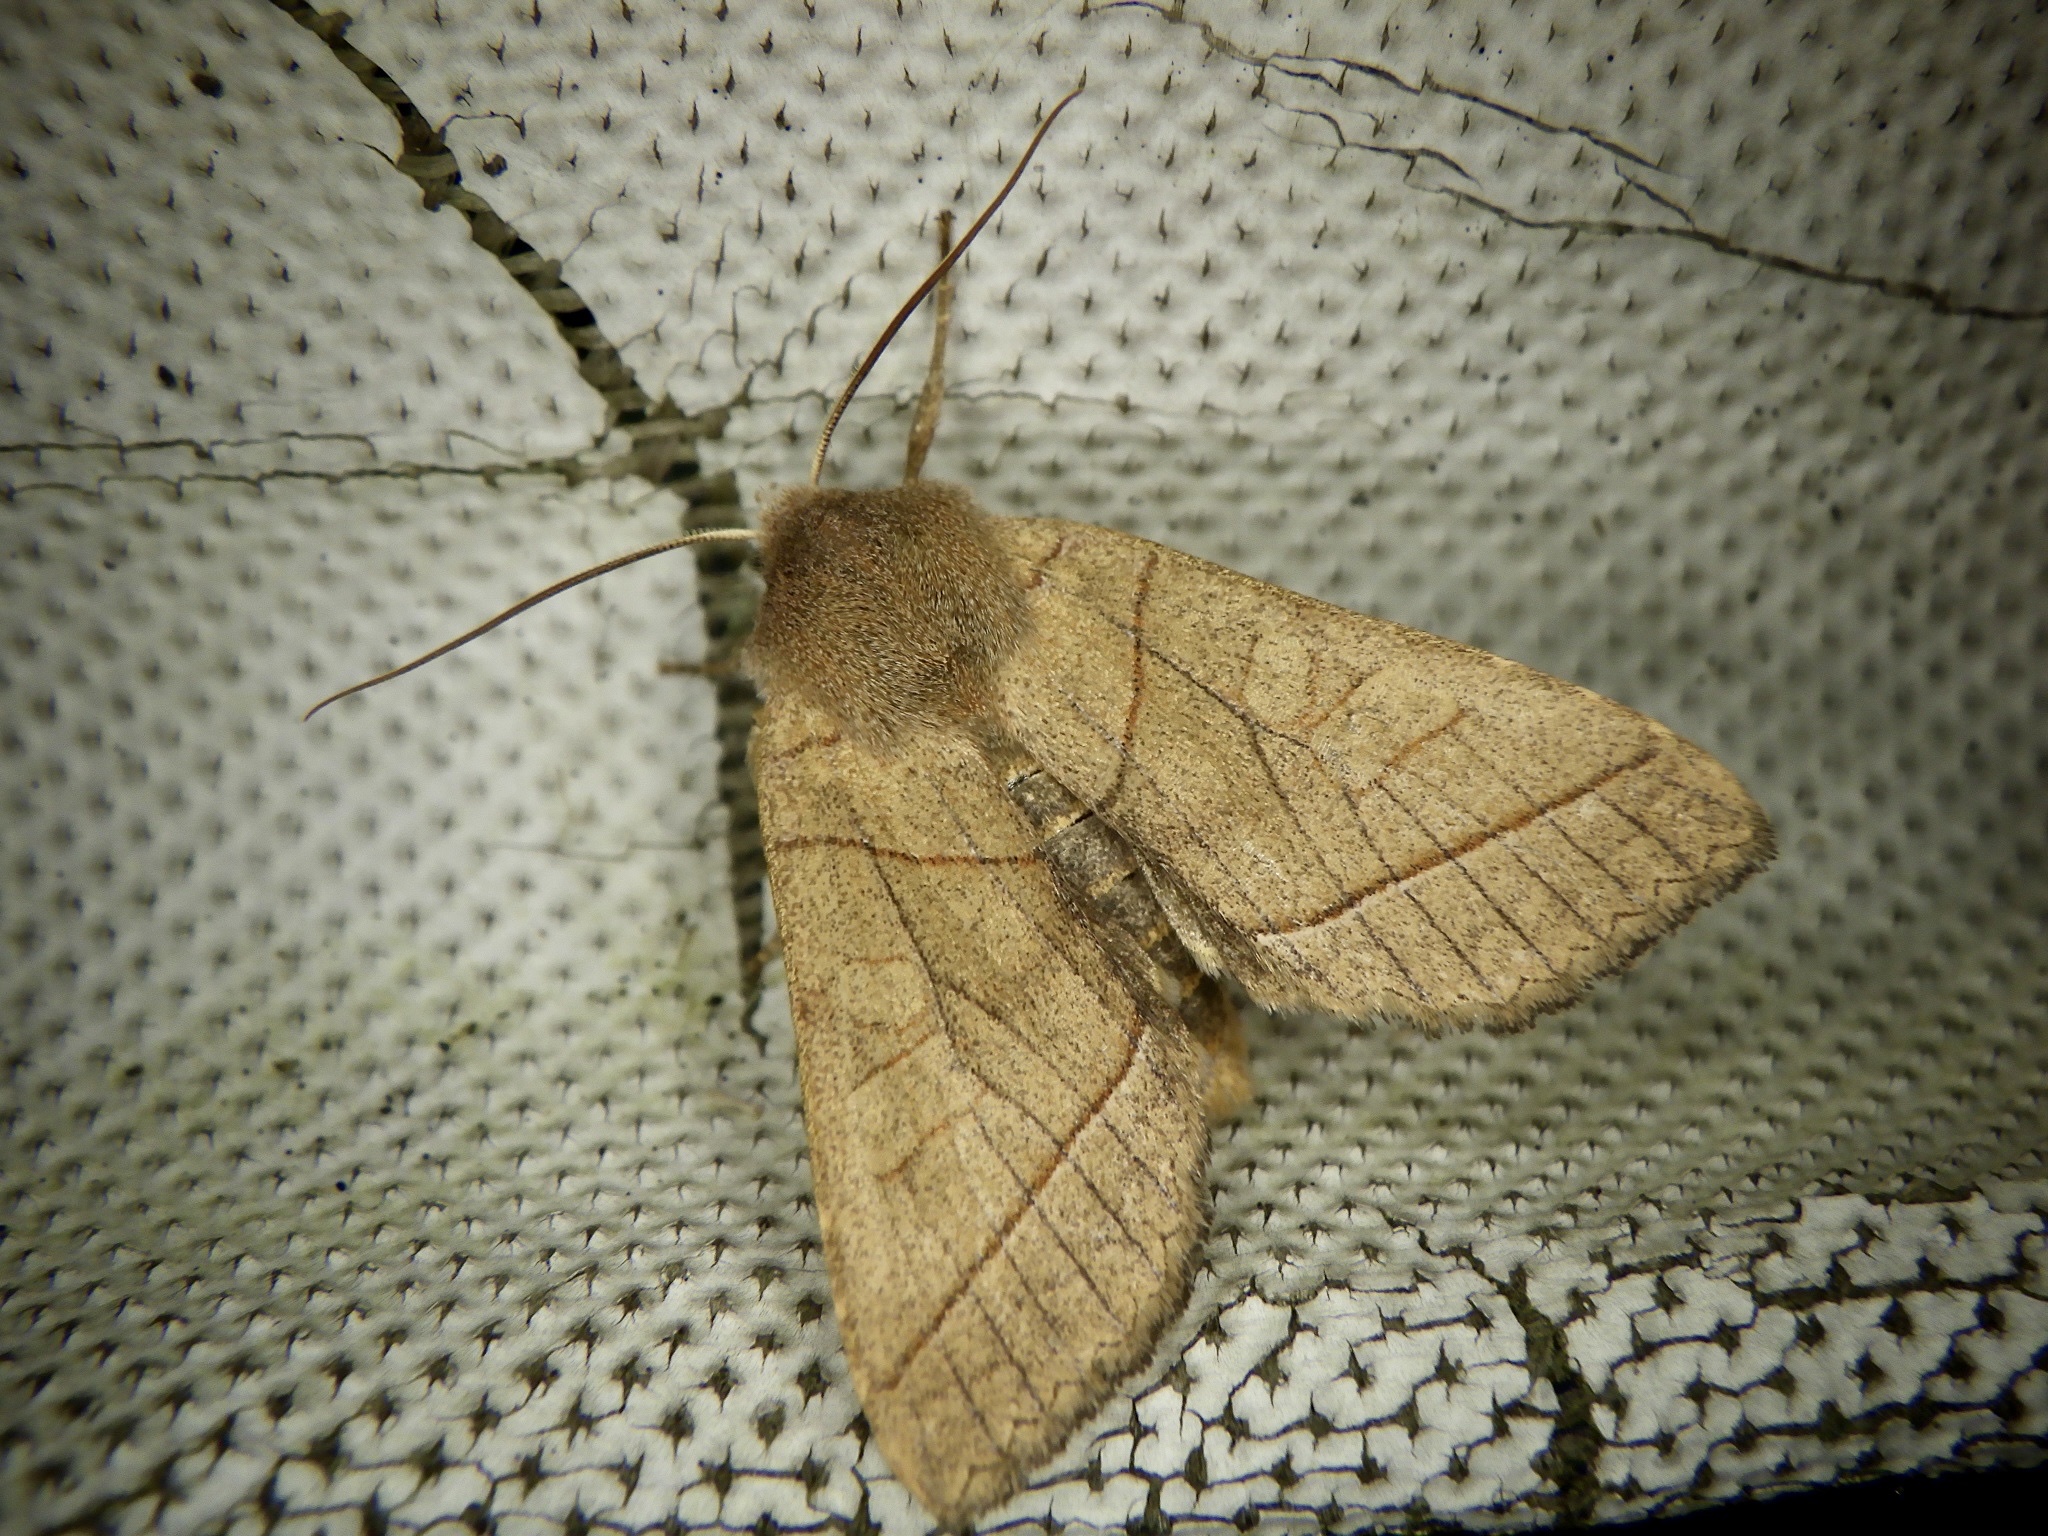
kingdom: Animalia
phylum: Arthropoda
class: Insecta
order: Lepidoptera
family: Noctuidae
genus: Telorta
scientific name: Telorta divergens
